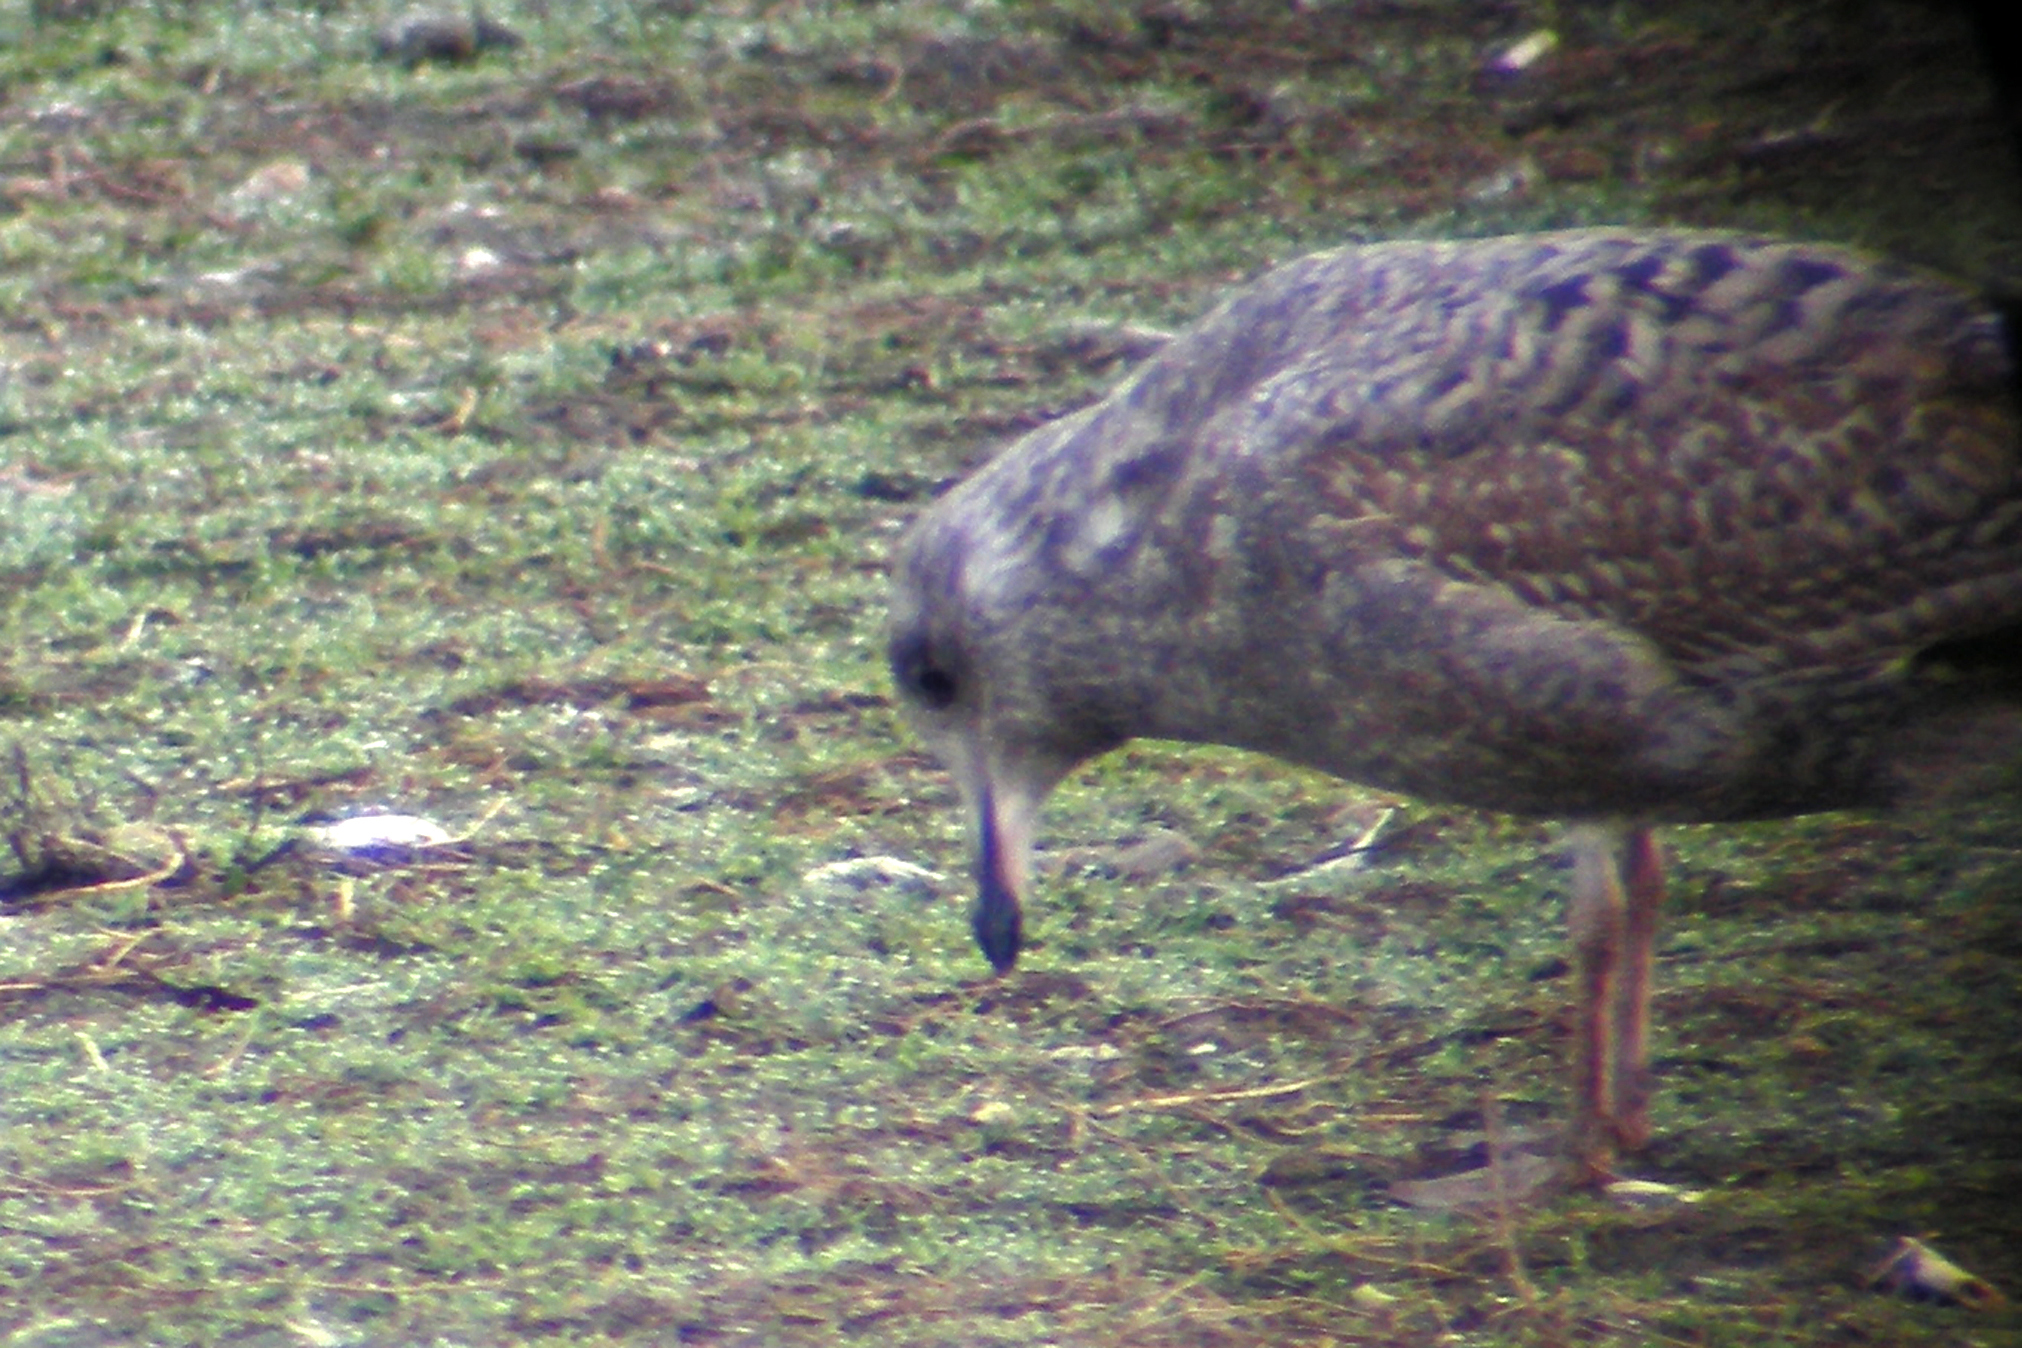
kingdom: Animalia
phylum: Chordata
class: Aves
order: Charadriiformes
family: Laridae
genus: Larus
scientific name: Larus argentatus
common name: Herring gull
